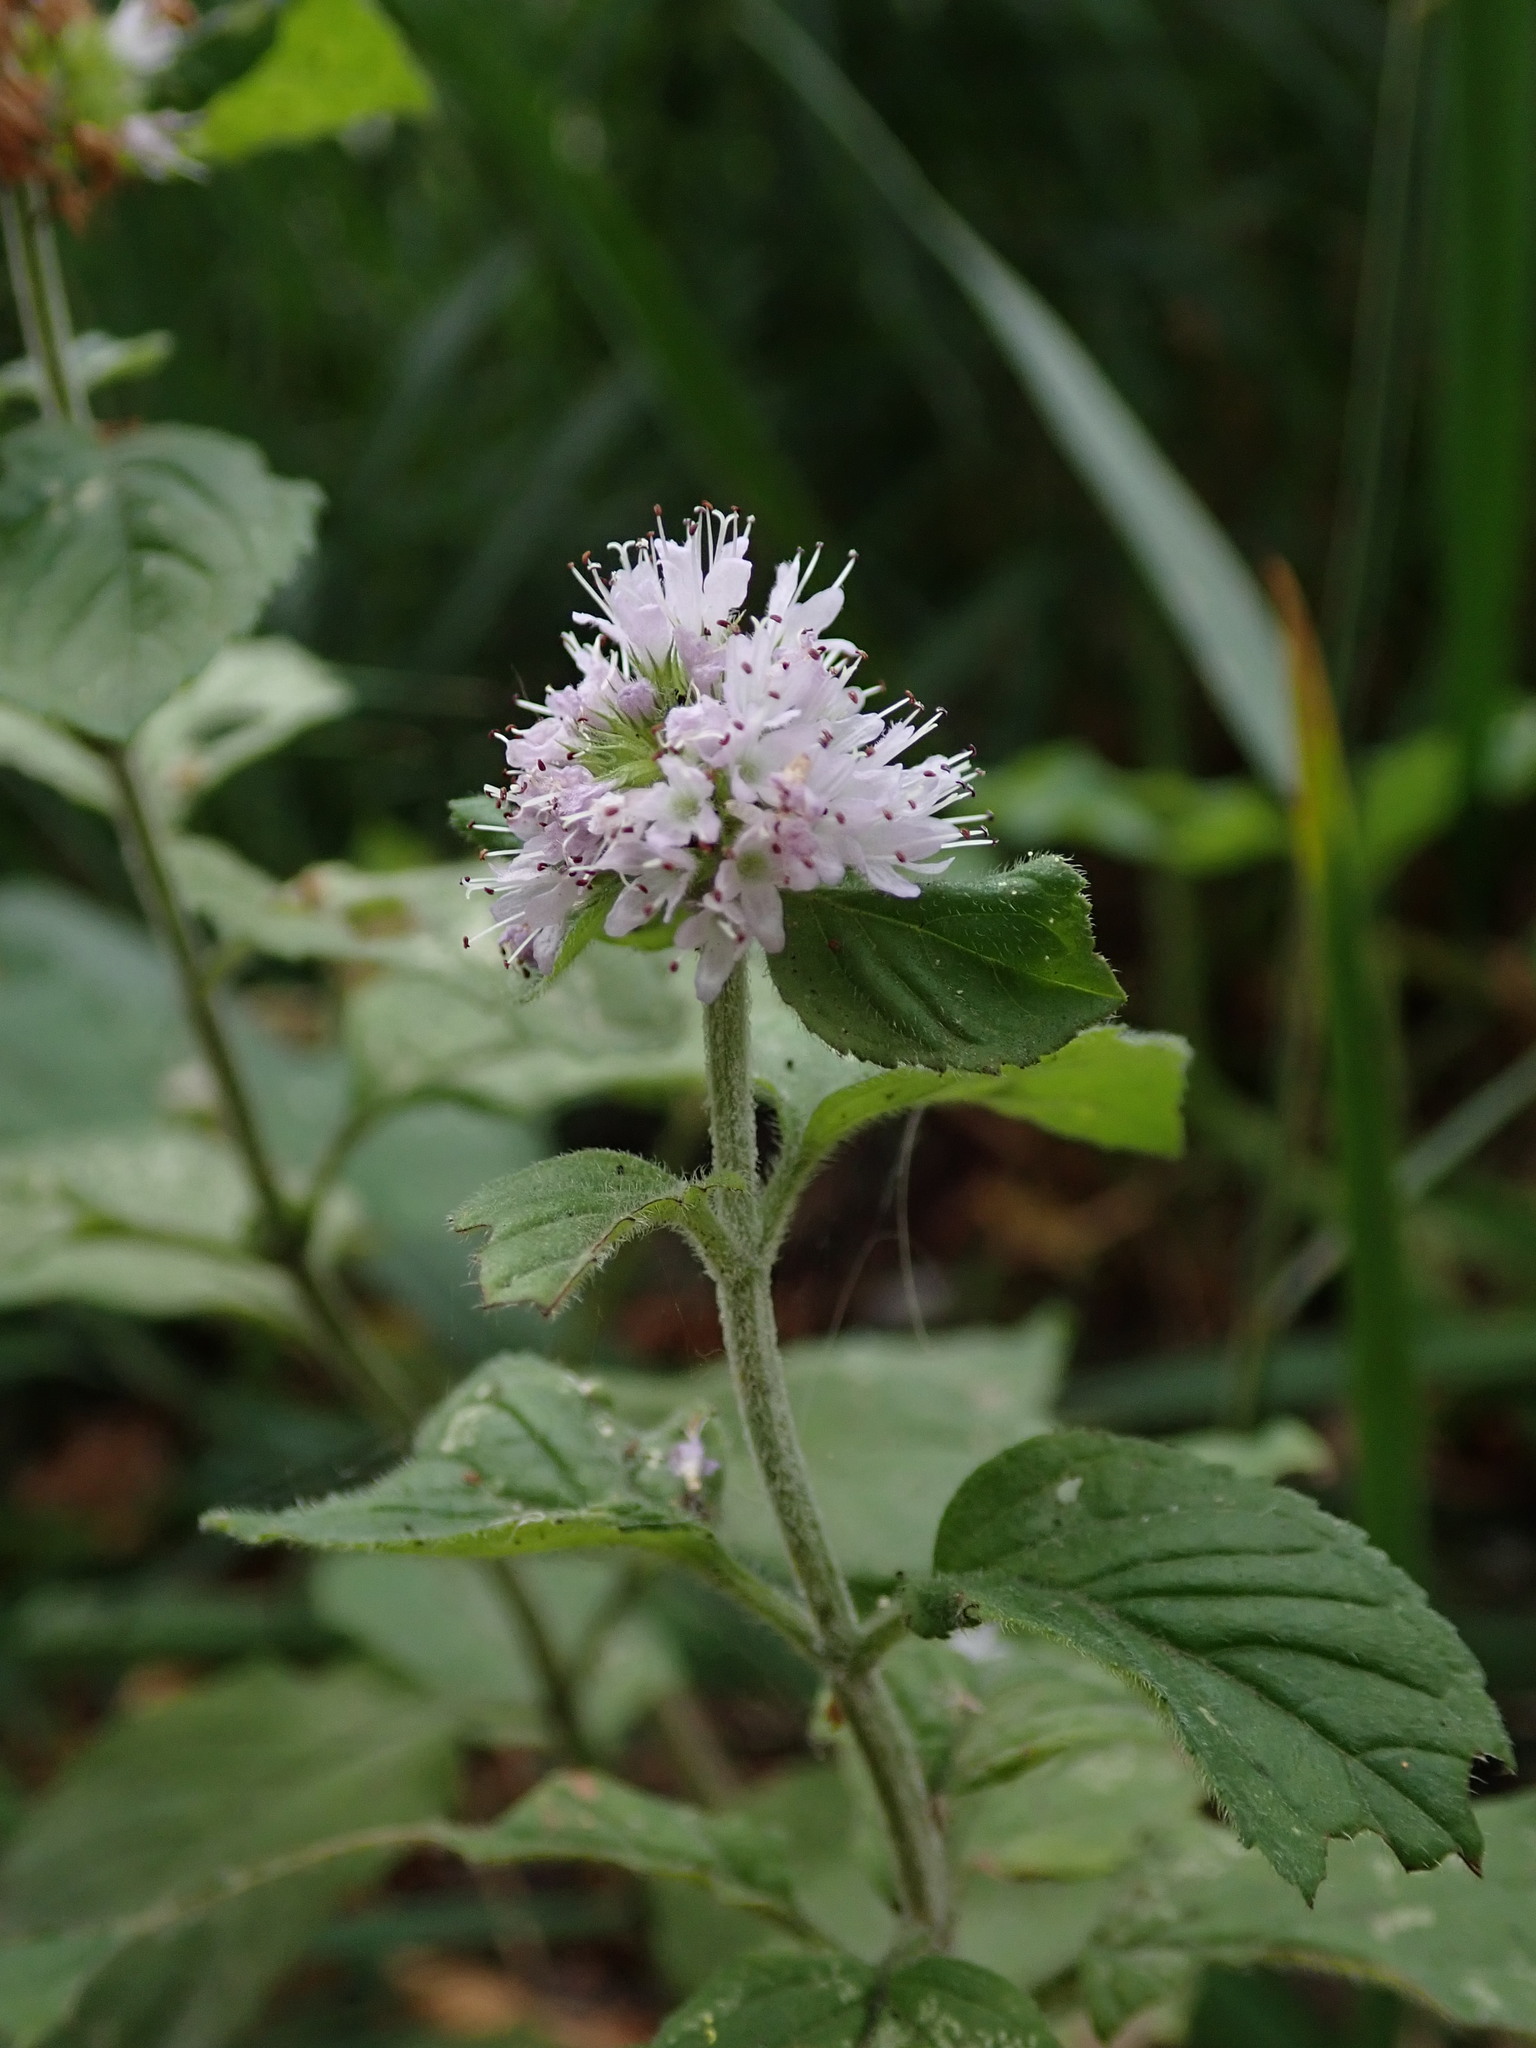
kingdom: Plantae
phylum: Tracheophyta
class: Magnoliopsida
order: Lamiales
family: Lamiaceae
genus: Mentha
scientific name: Mentha aquatica
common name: Water mint
